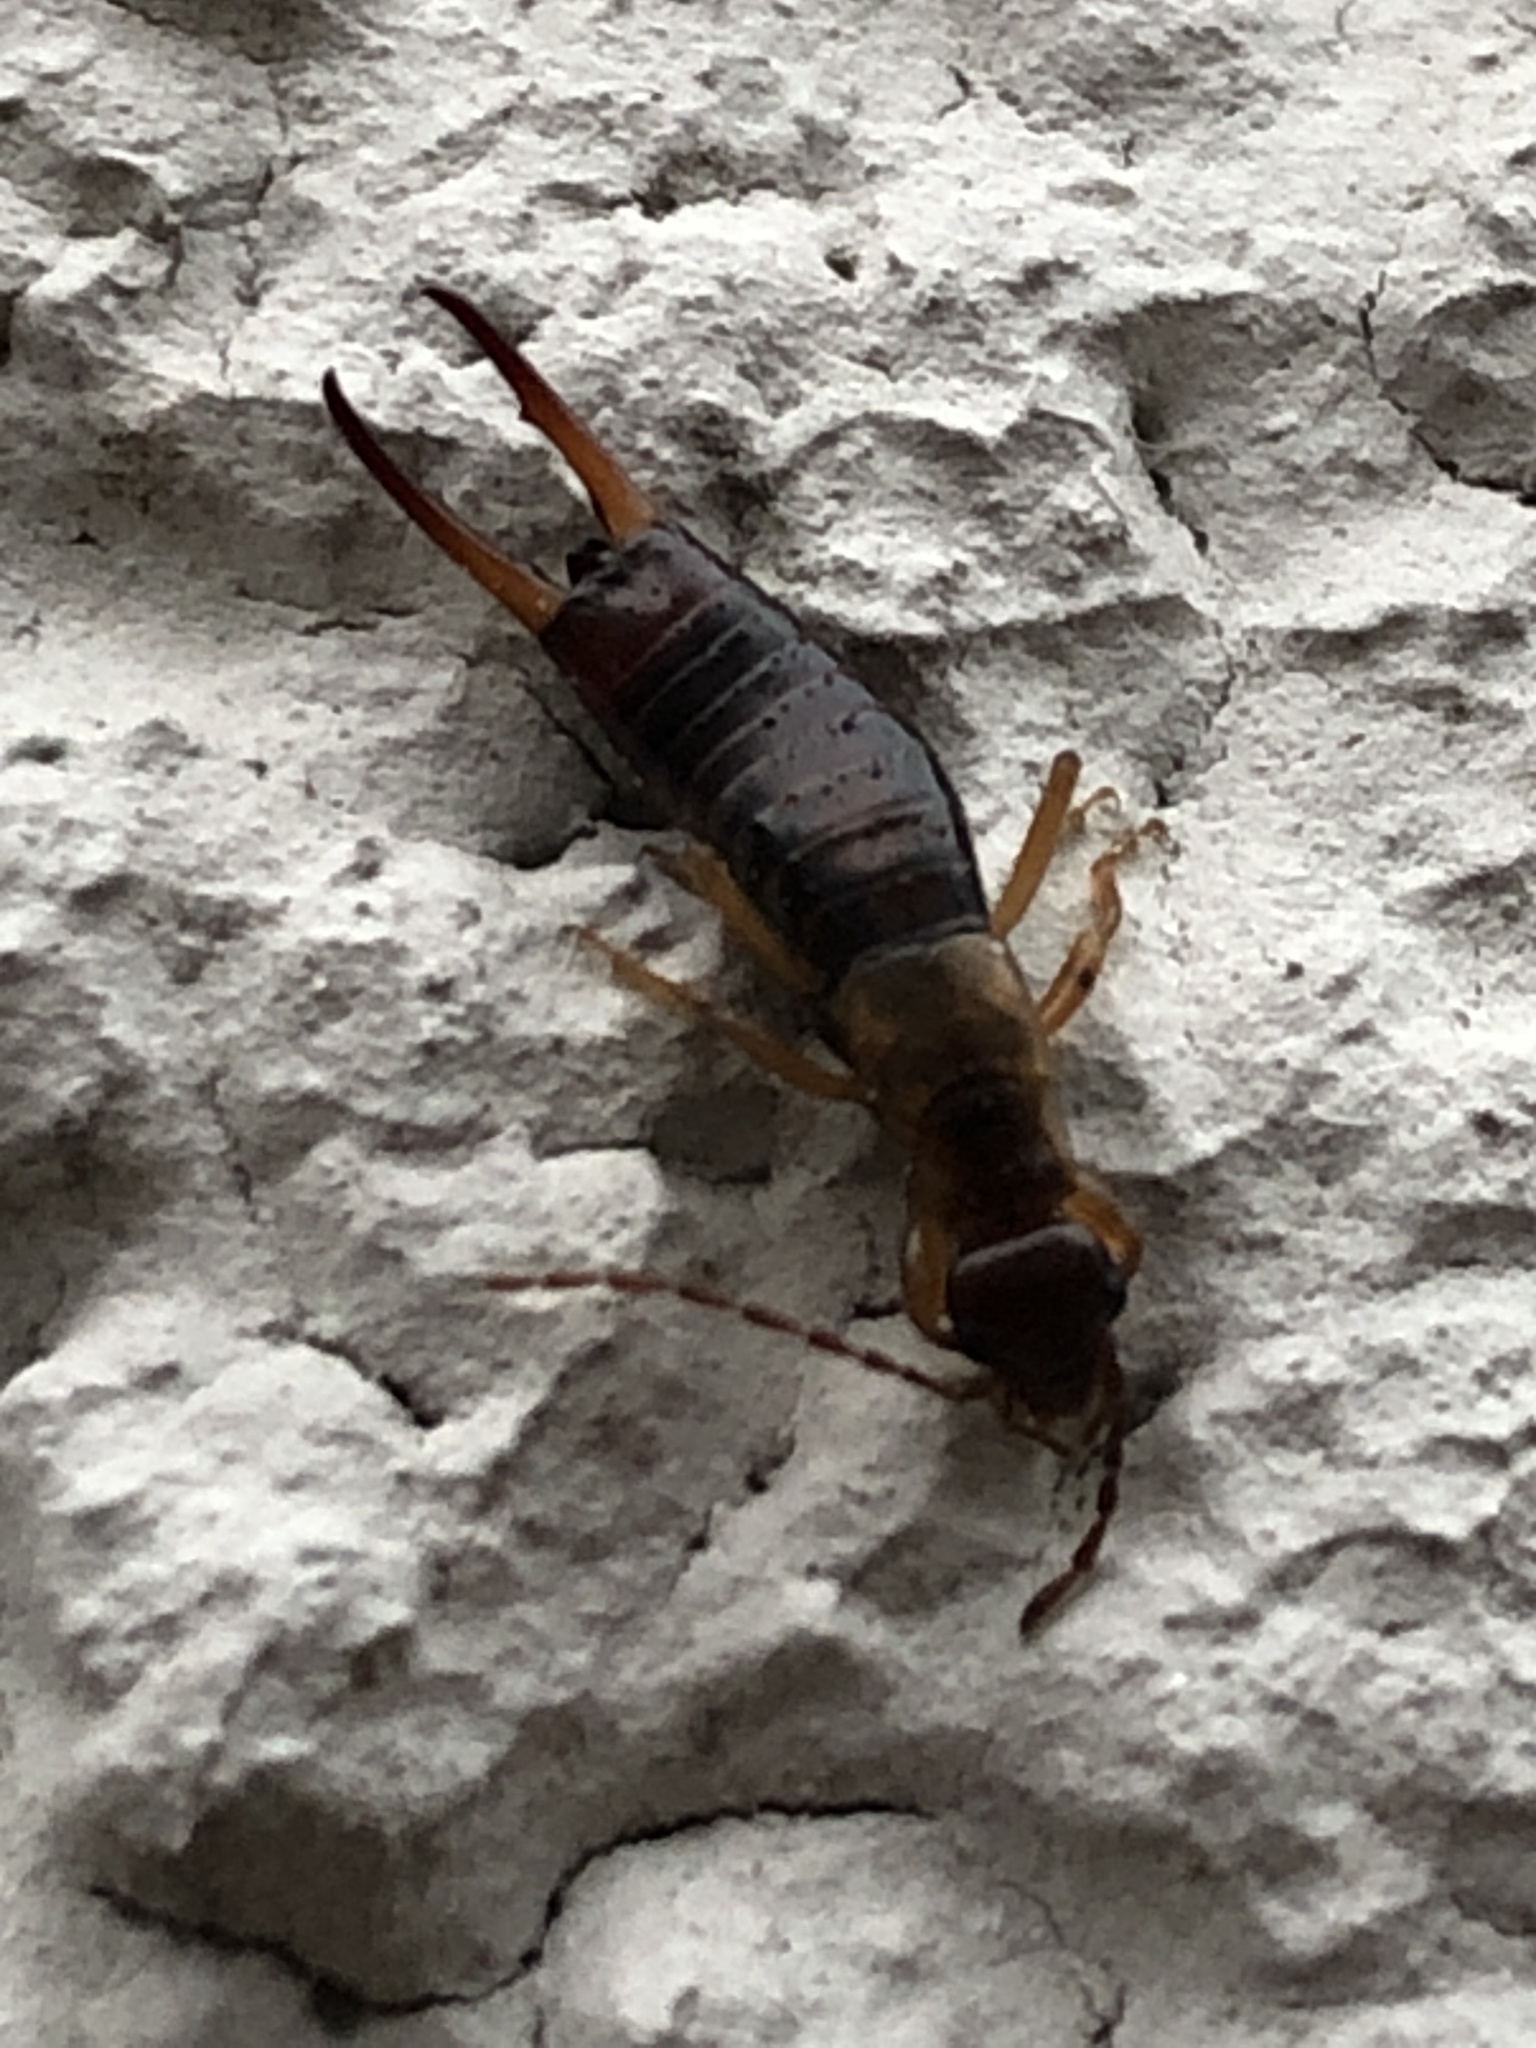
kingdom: Animalia
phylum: Arthropoda
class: Insecta
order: Dermaptera
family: Forficulidae
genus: Apterygida
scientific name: Apterygida albipennis
